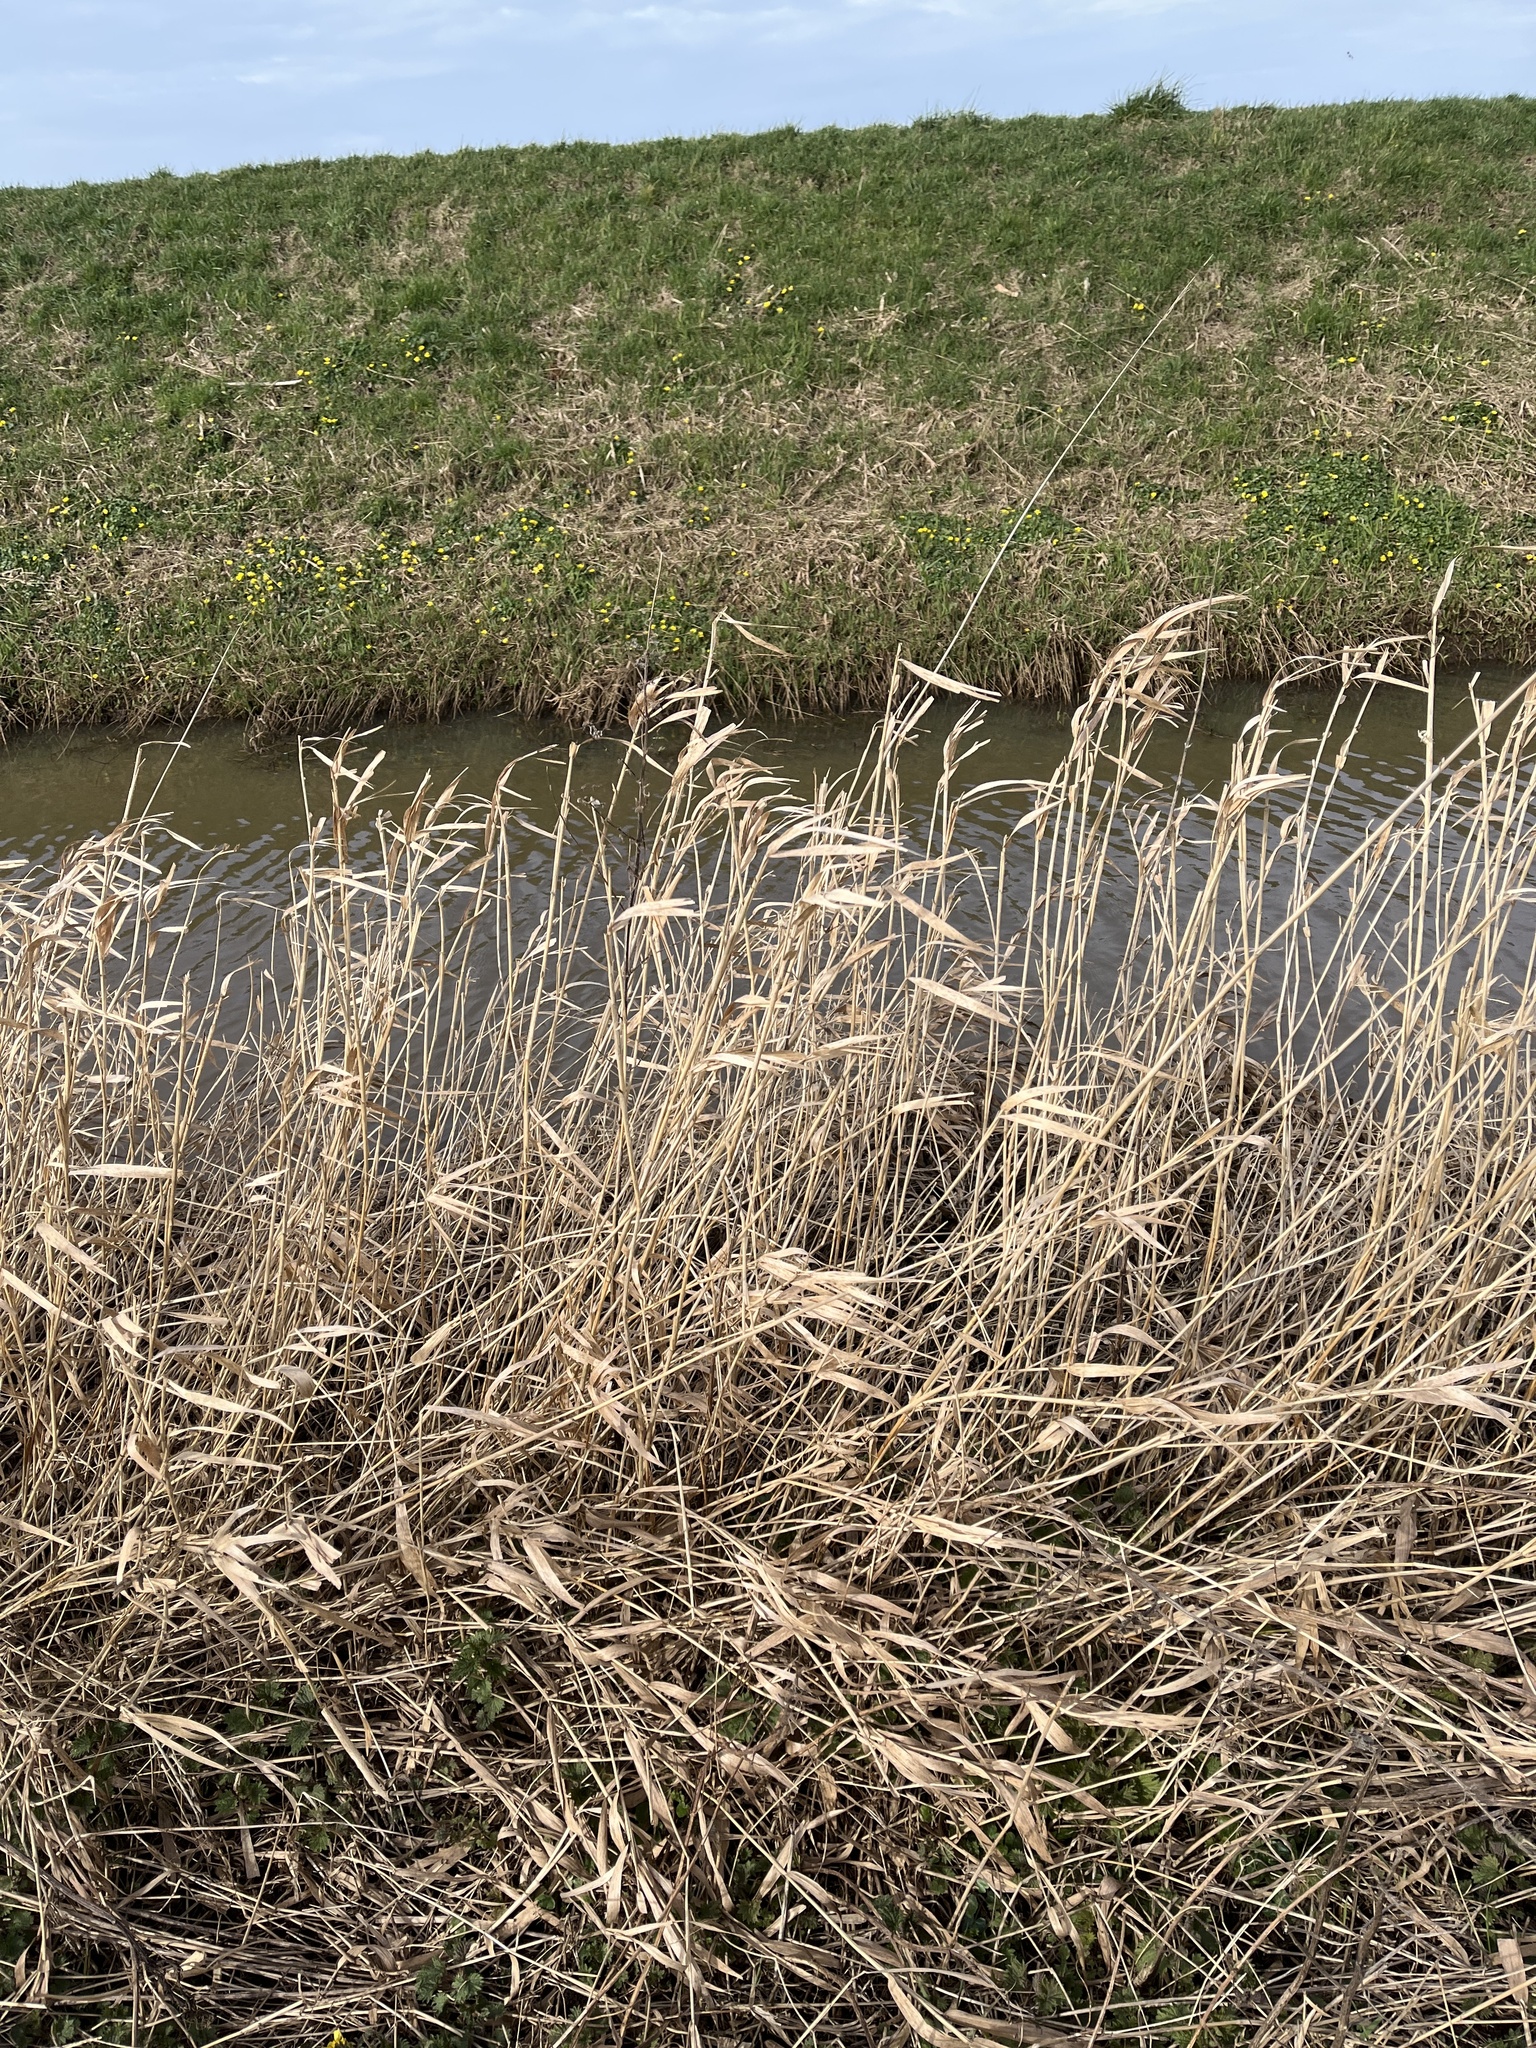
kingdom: Plantae
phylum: Tracheophyta
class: Liliopsida
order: Poales
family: Poaceae
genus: Phalaris
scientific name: Phalaris arundinacea
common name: Reed canary-grass
